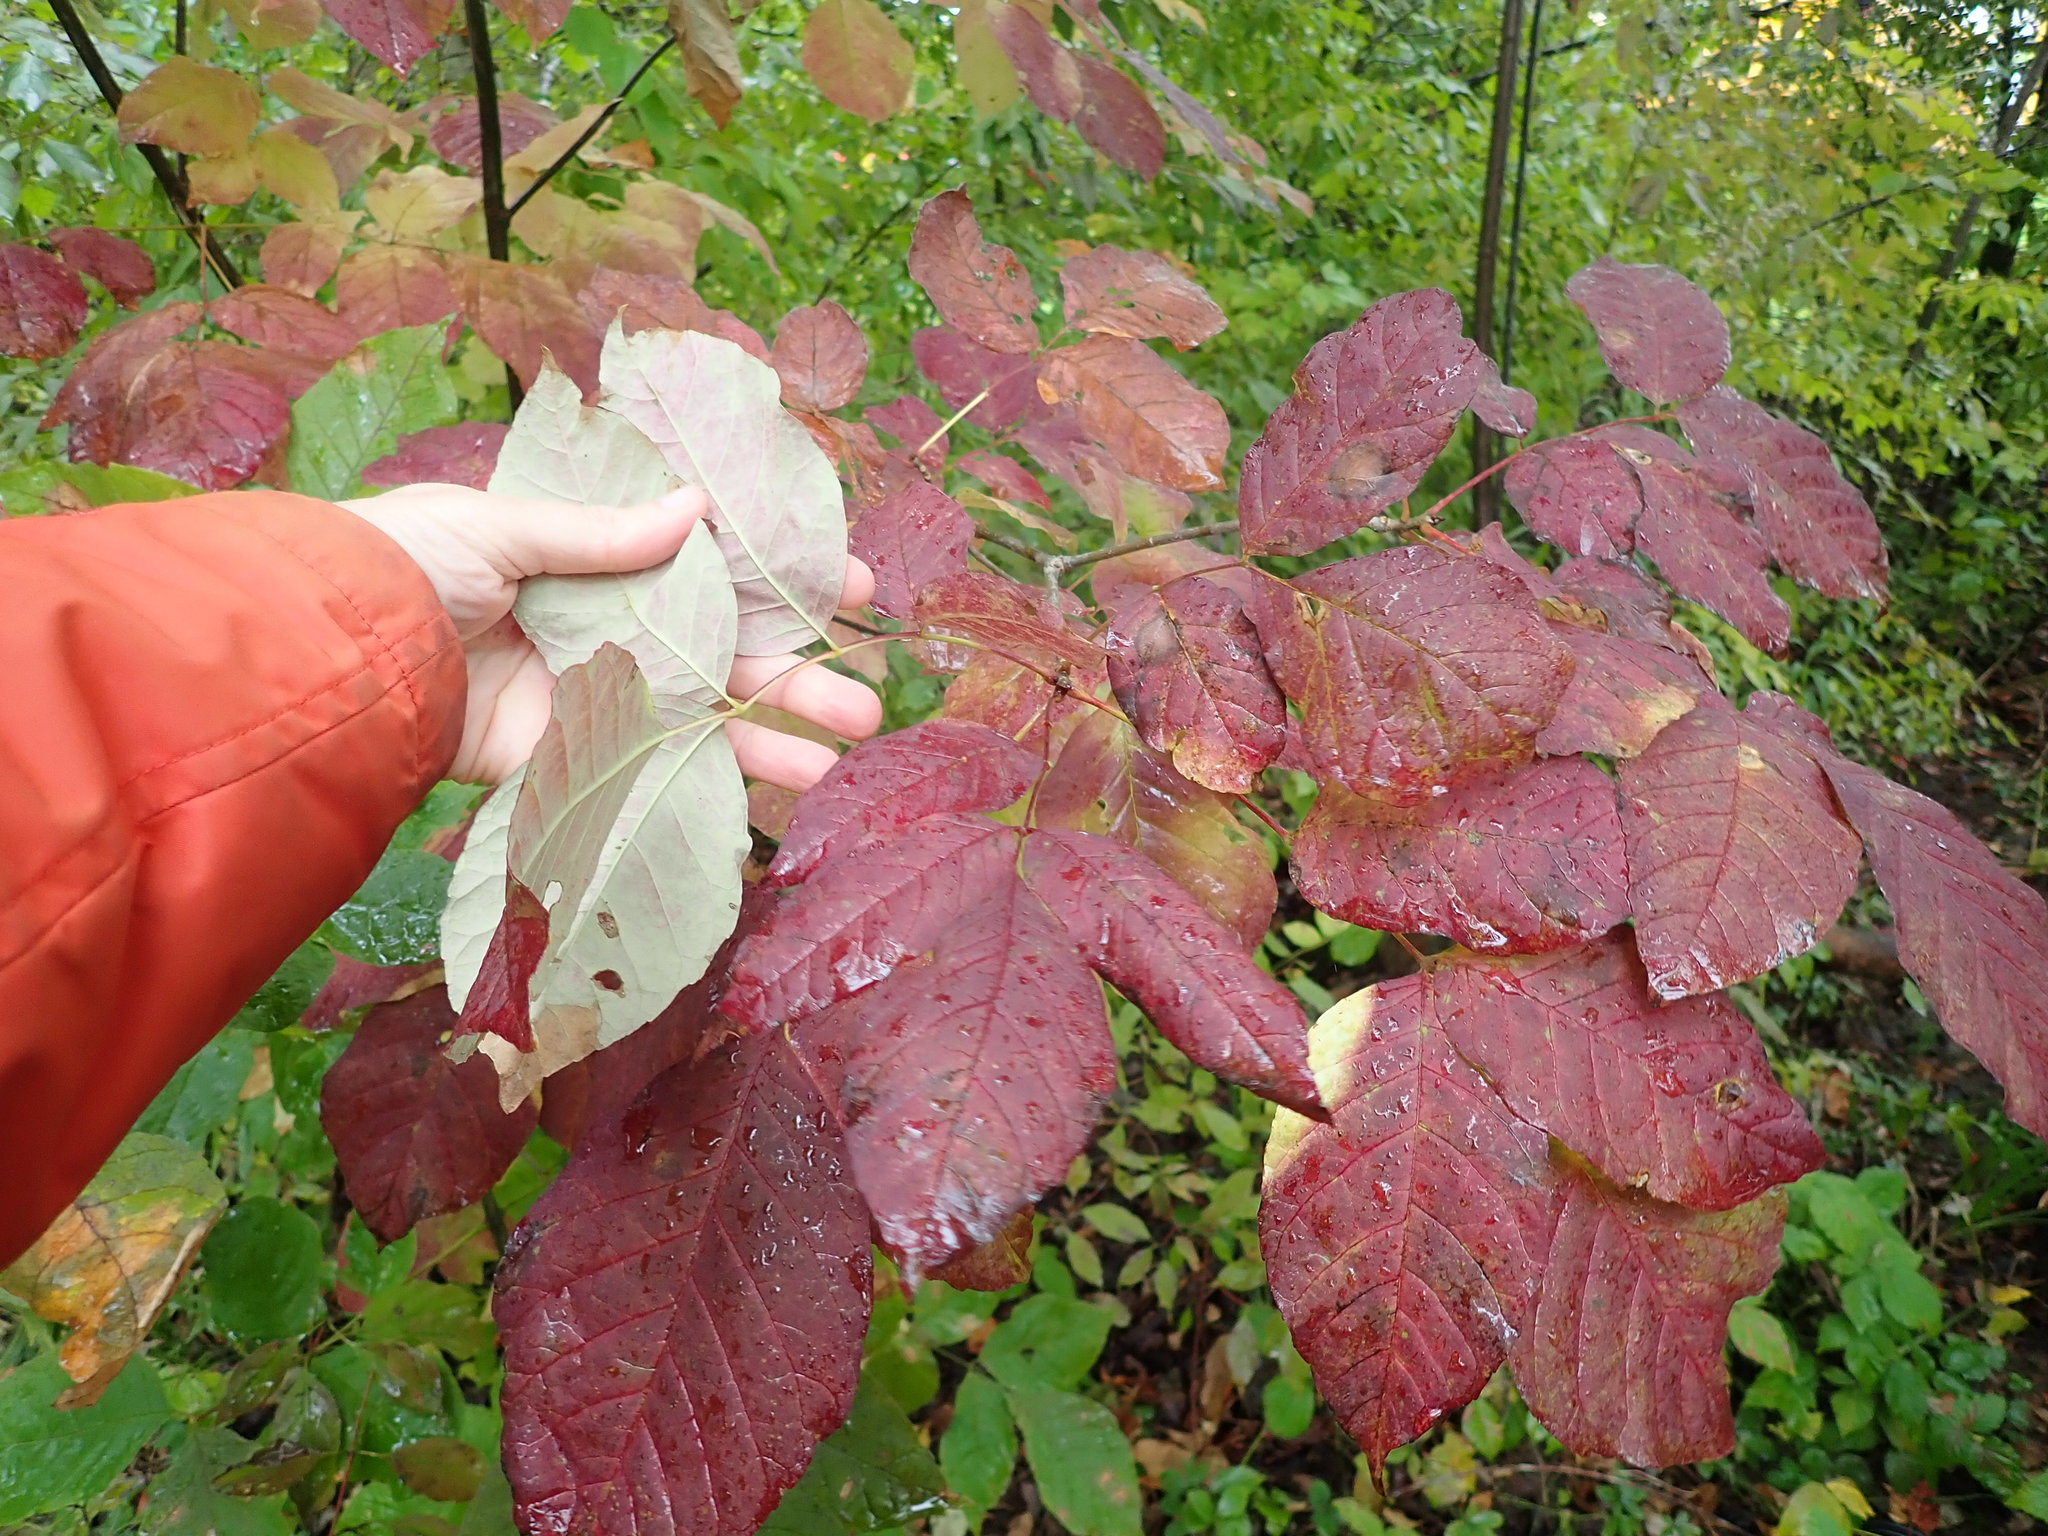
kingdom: Plantae
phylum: Tracheophyta
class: Magnoliopsida
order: Lamiales
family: Oleaceae
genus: Fraxinus
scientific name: Fraxinus americana
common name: White ash
